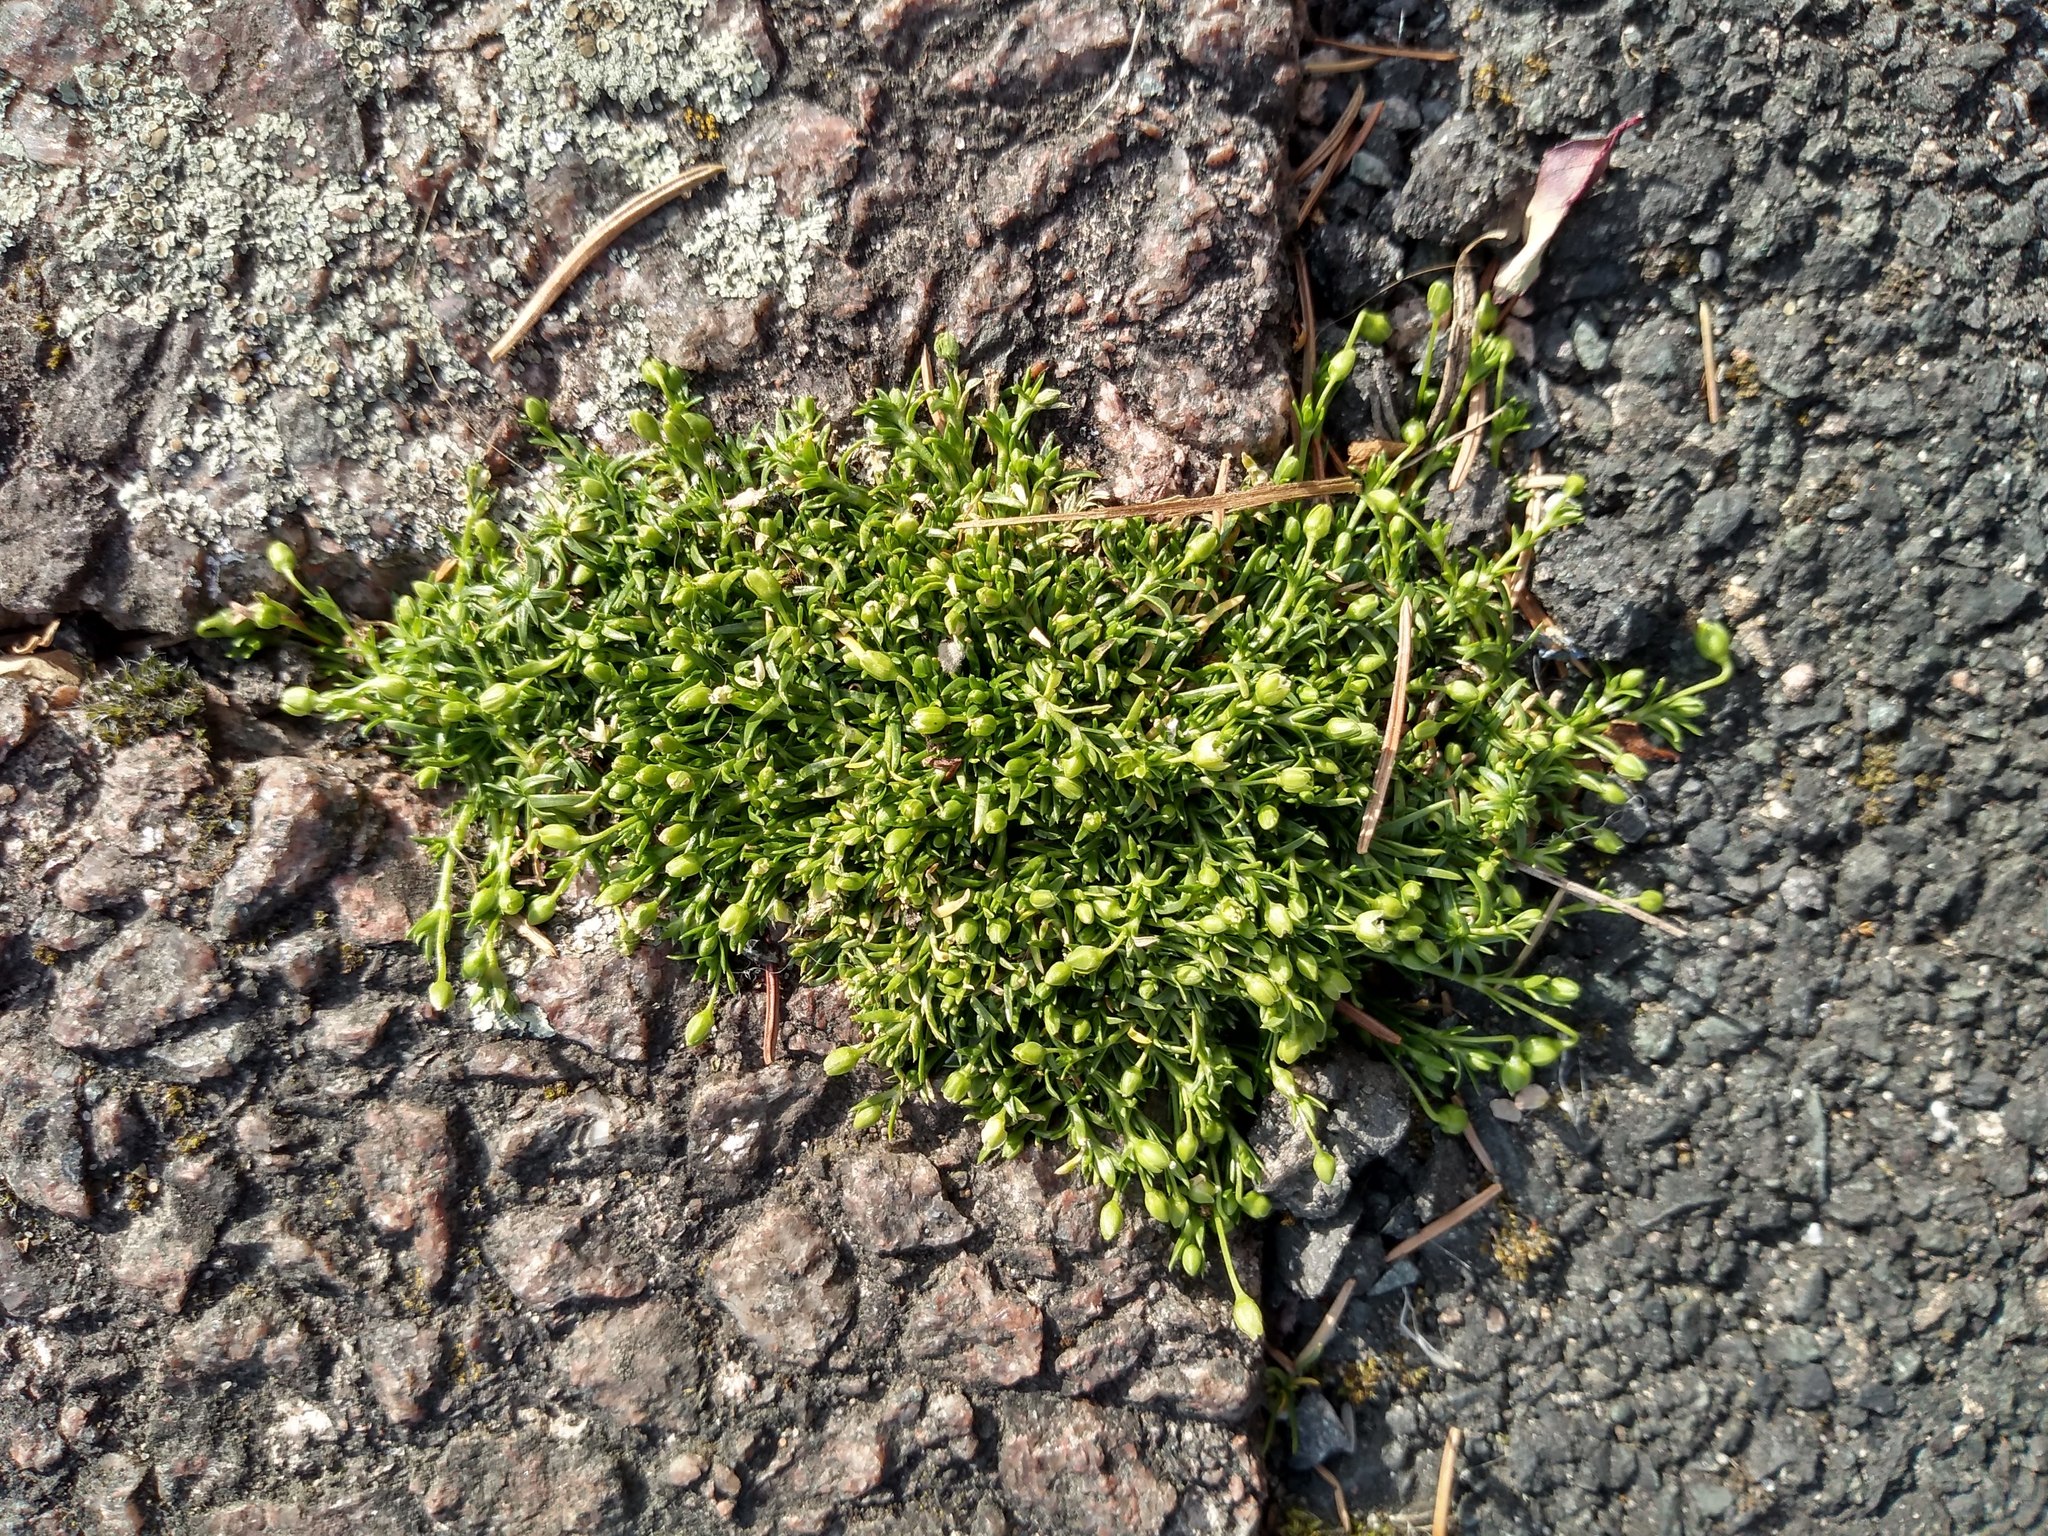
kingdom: Plantae
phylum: Tracheophyta
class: Magnoliopsida
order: Caryophyllales
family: Caryophyllaceae
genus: Sagina
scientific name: Sagina procumbens
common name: Procumbent pearlwort
